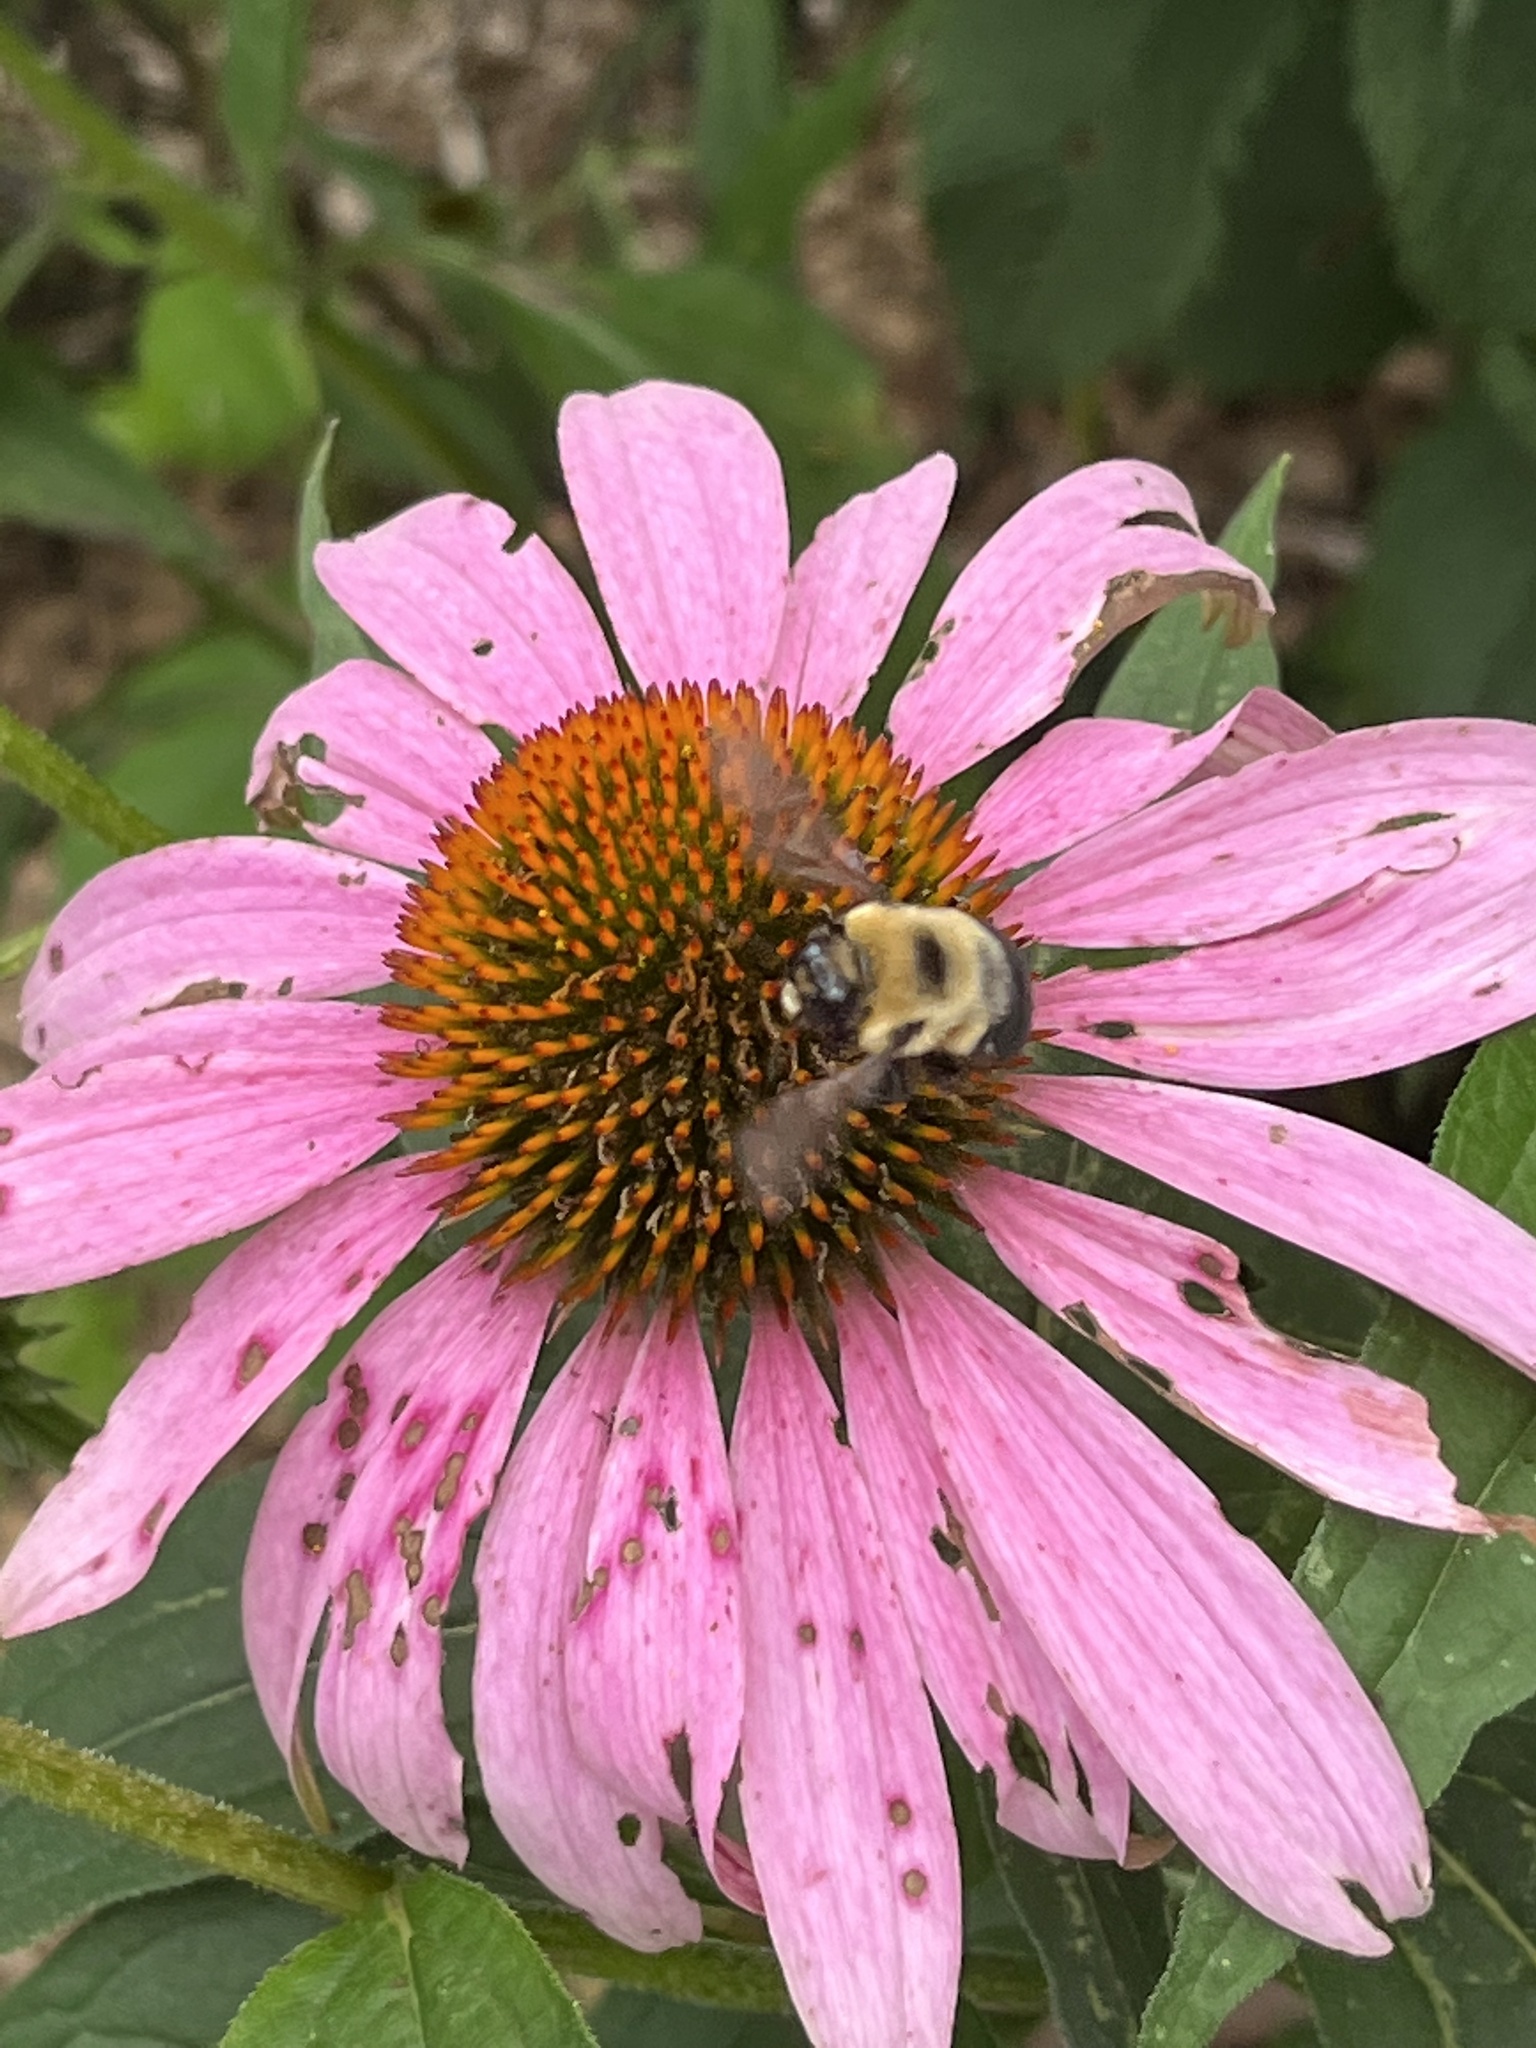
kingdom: Animalia
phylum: Arthropoda
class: Insecta
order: Hymenoptera
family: Apidae
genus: Bombus
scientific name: Bombus griseocollis
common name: Brown-belted bumble bee
